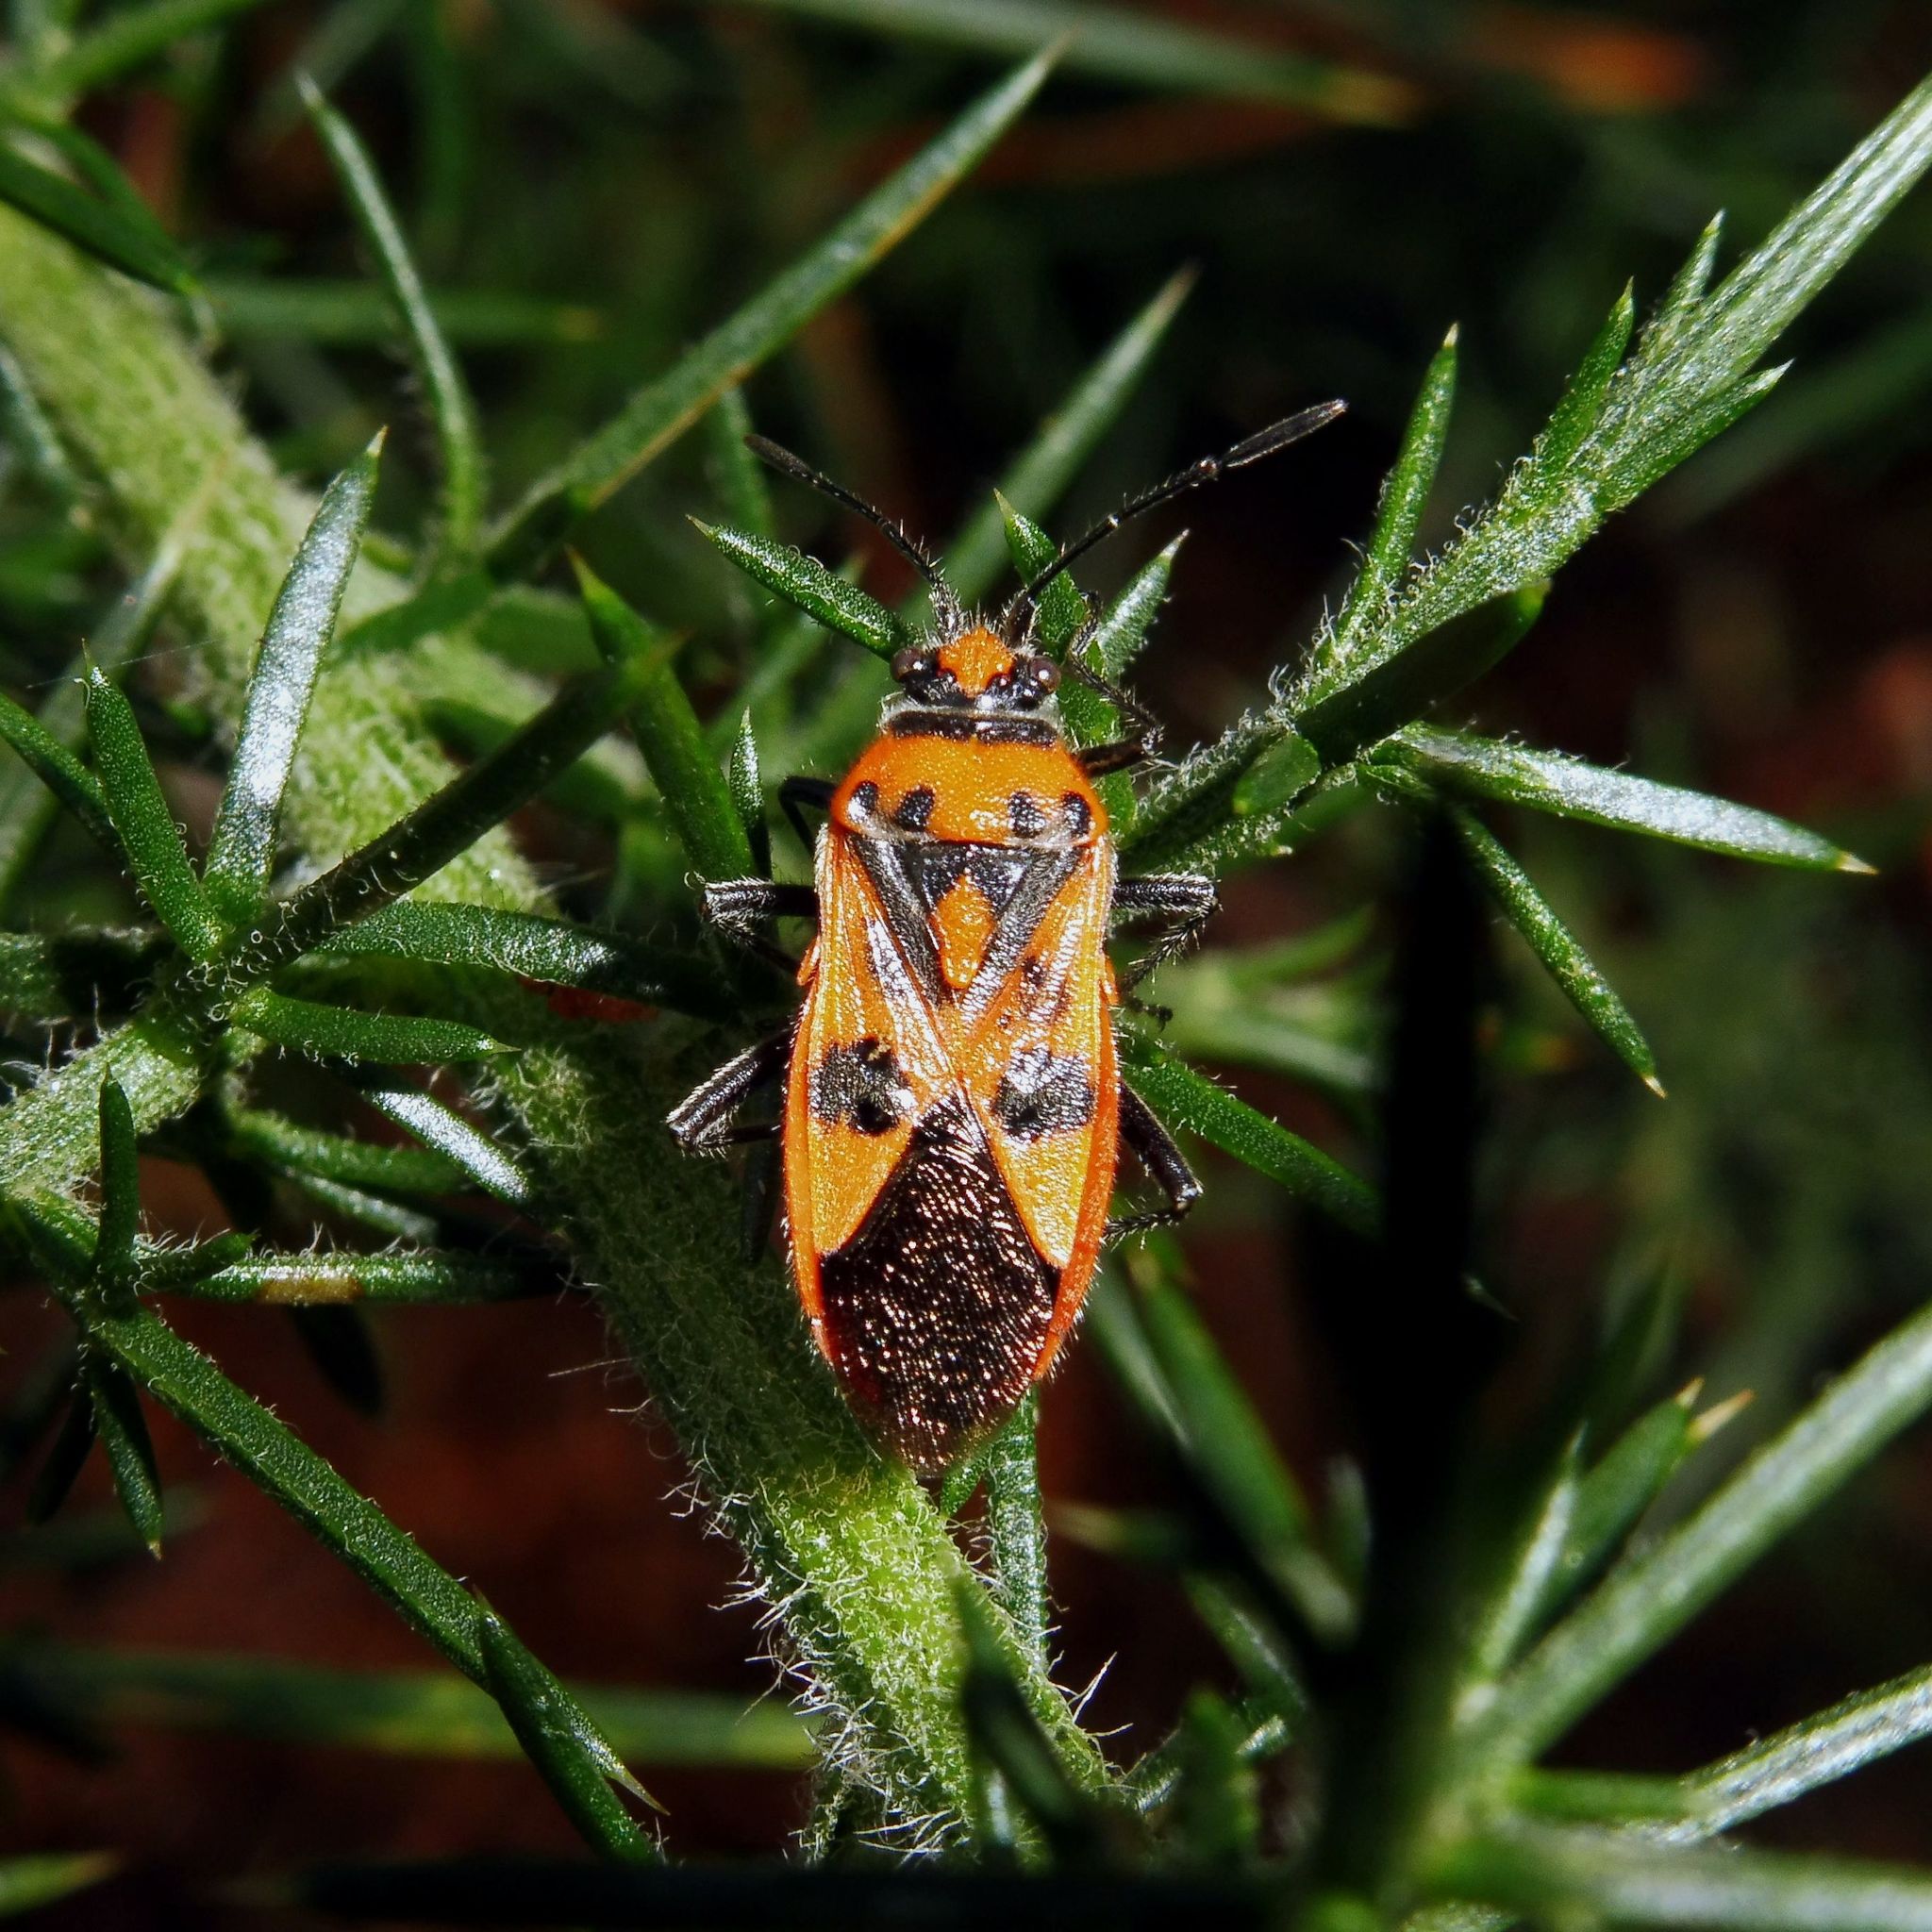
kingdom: Animalia
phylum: Arthropoda
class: Insecta
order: Hemiptera
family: Rhopalidae
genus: Corizus
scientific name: Corizus hyoscyami
